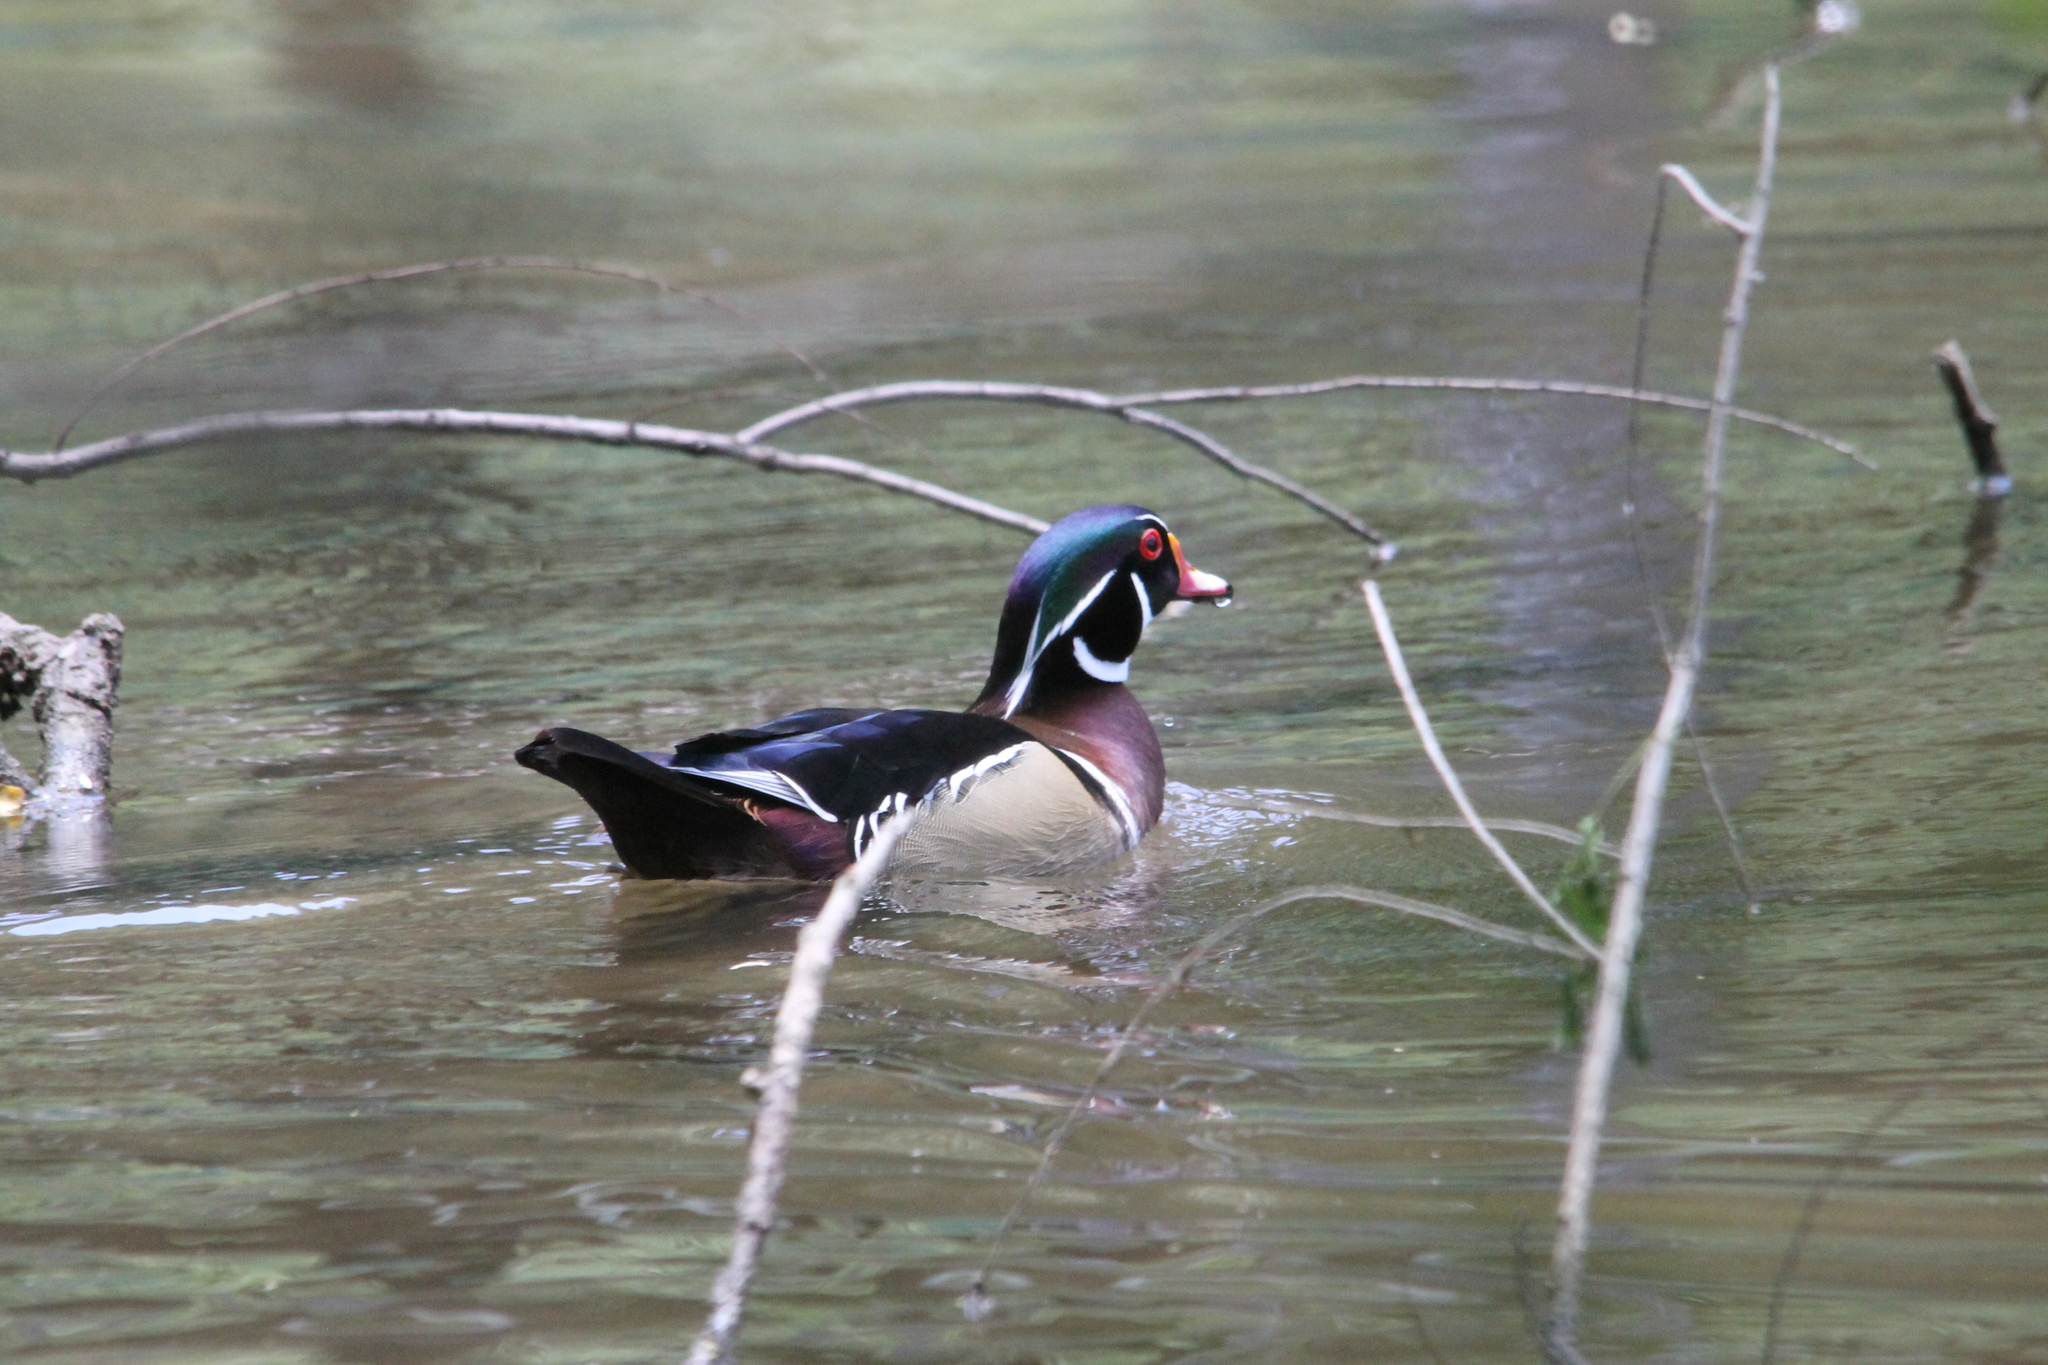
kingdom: Animalia
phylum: Chordata
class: Aves
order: Anseriformes
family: Anatidae
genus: Aix
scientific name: Aix sponsa
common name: Wood duck
